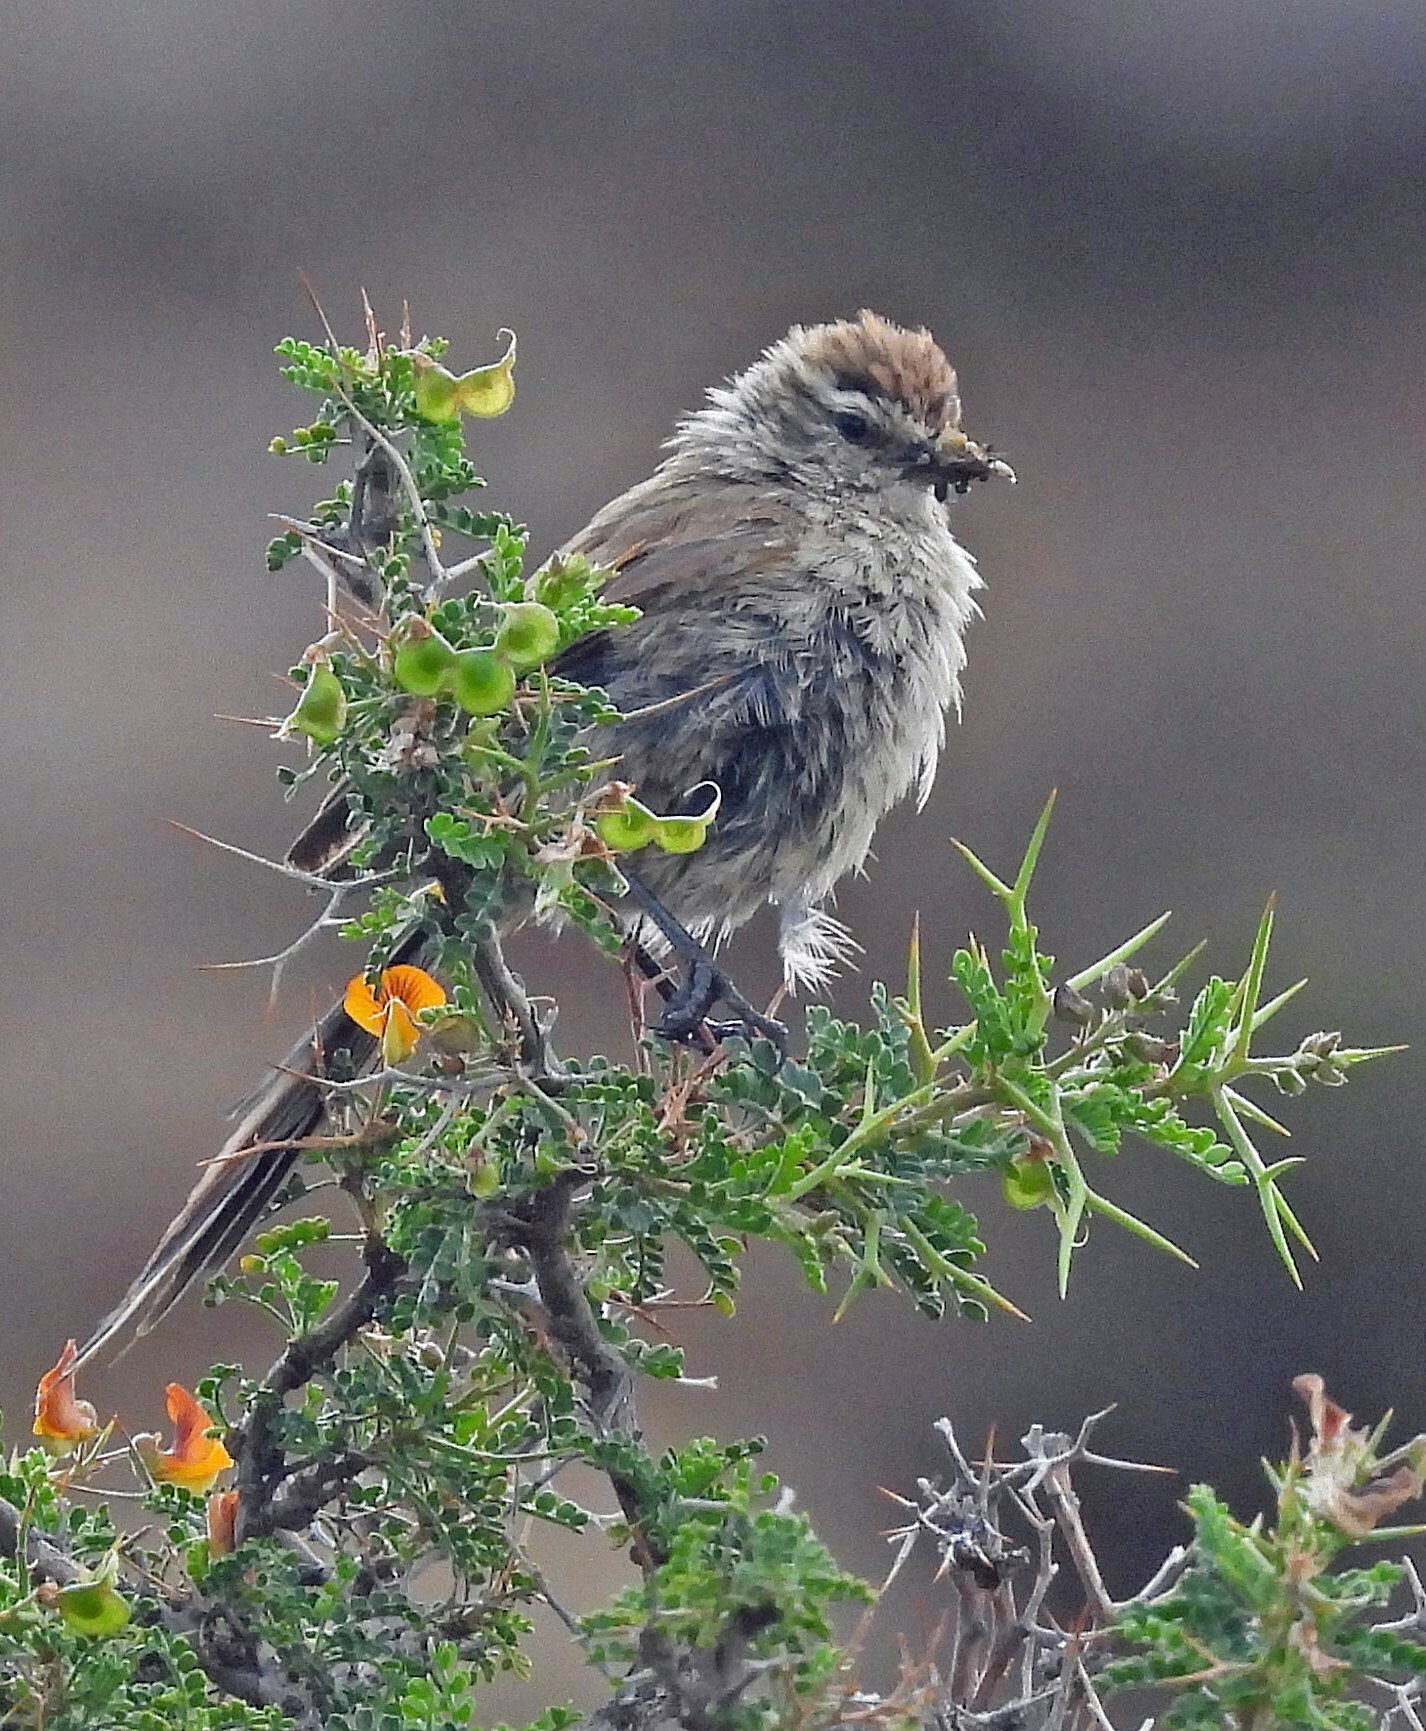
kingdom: Animalia
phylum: Chordata
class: Aves
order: Passeriformes
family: Furnariidae
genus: Leptasthenura
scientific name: Leptasthenura aegithaloides
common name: Plain-mantled tit-spinetail
